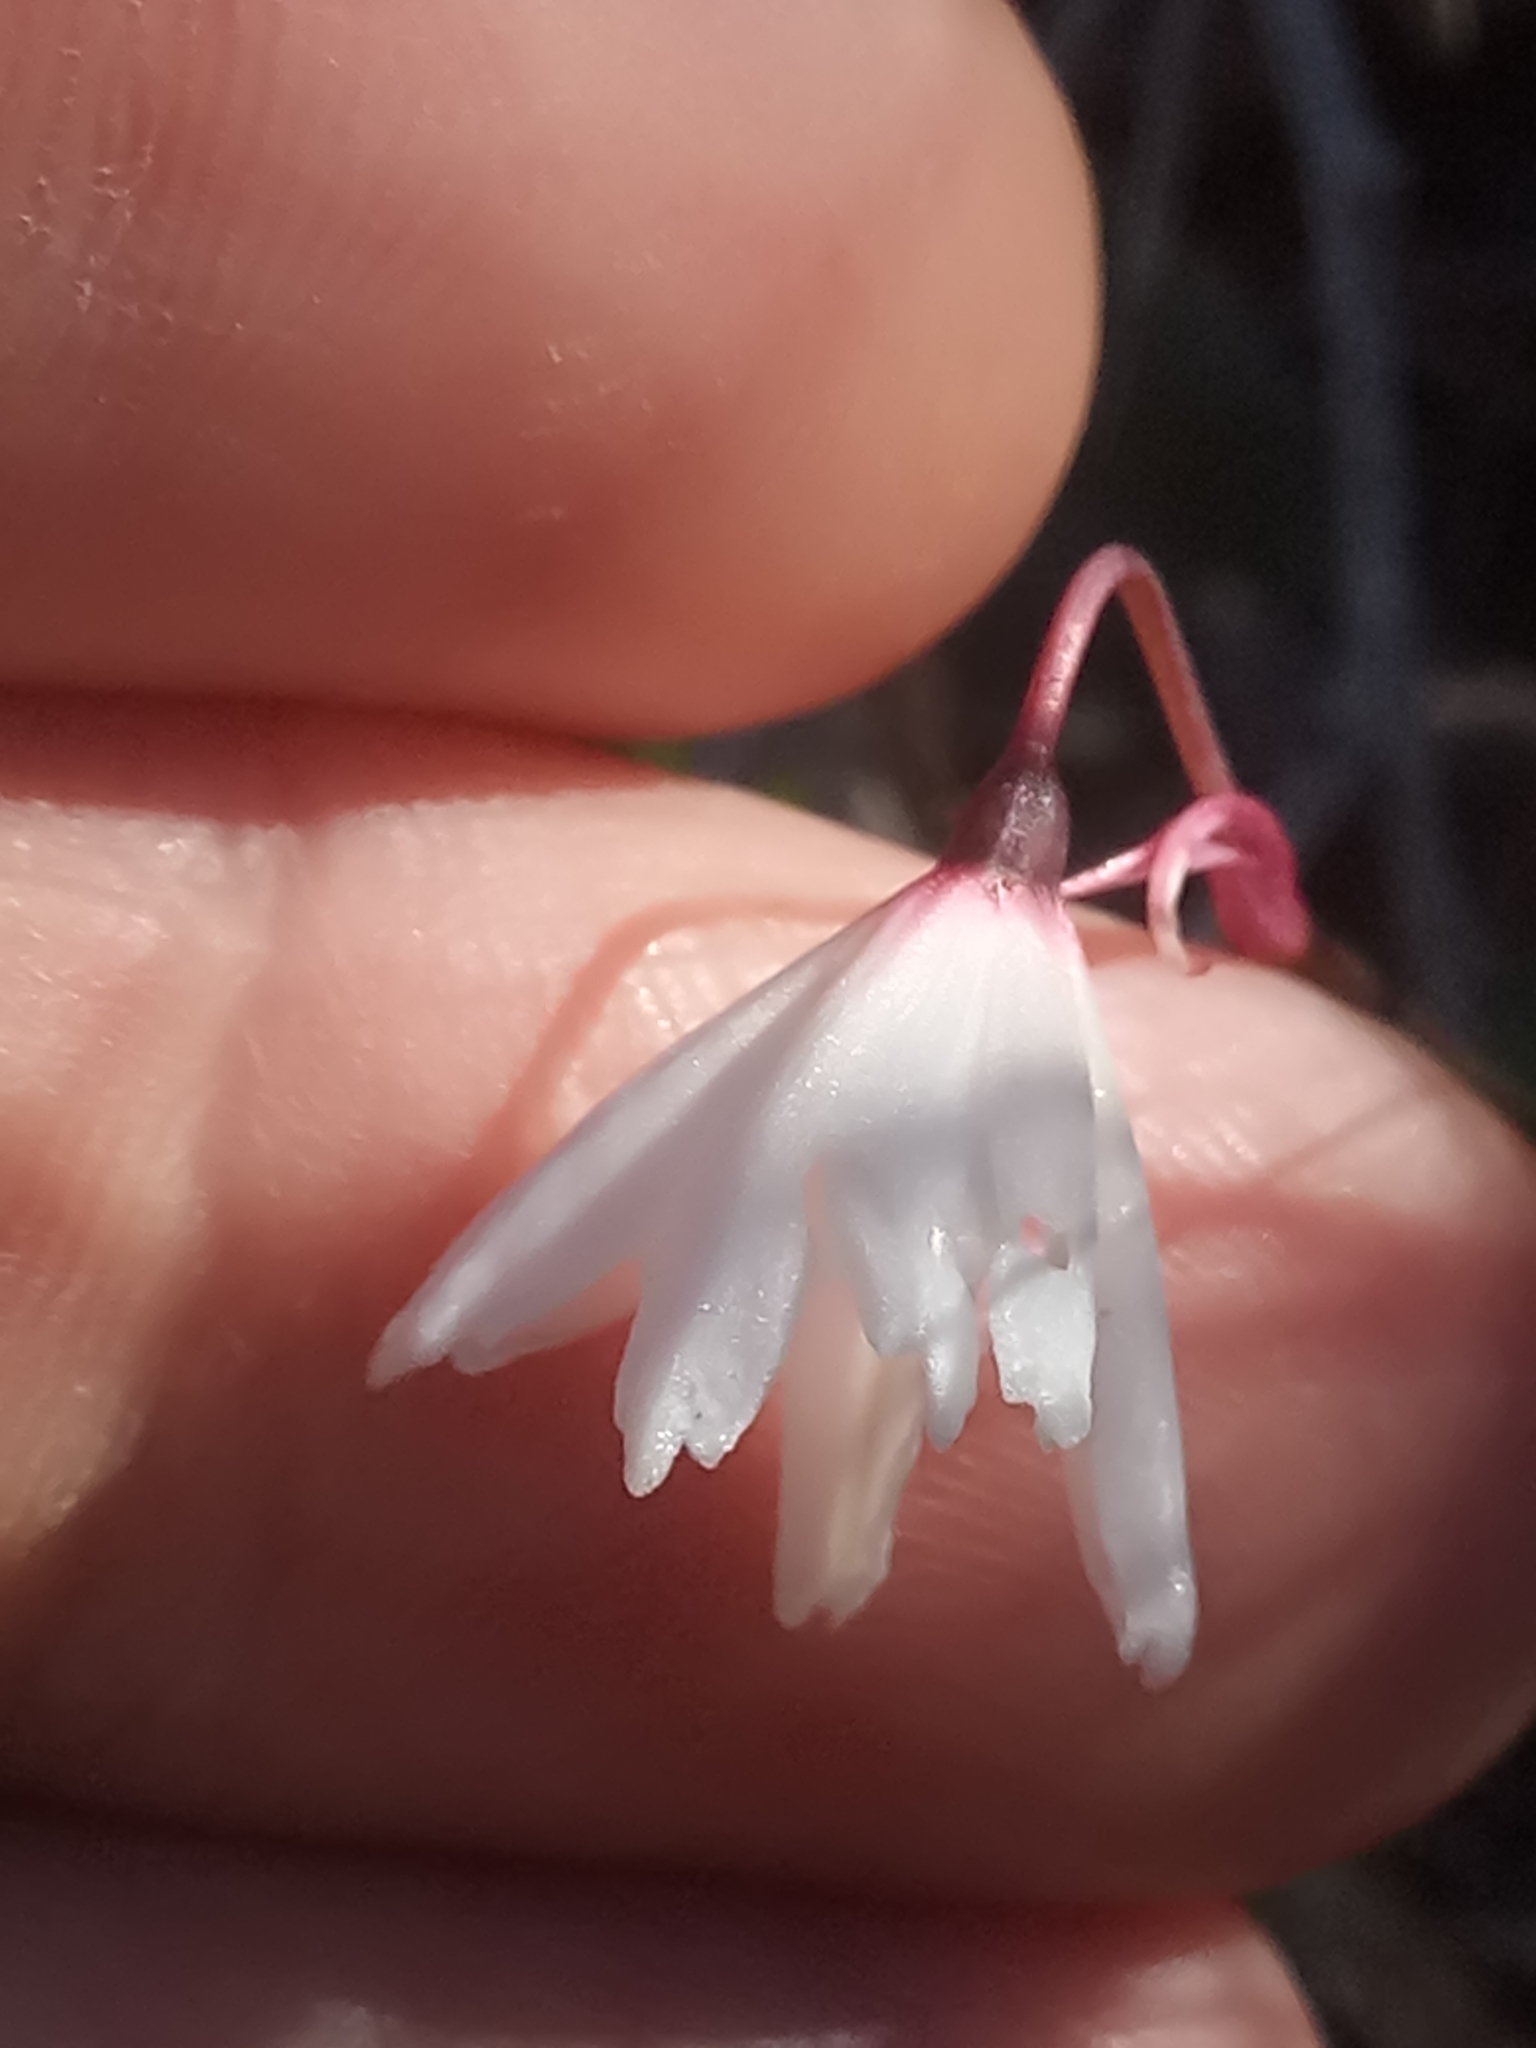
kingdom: Plantae
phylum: Tracheophyta
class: Liliopsida
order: Asparagales
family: Amaryllidaceae
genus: Acis
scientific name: Acis autumnalis
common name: Autumn snowflake
